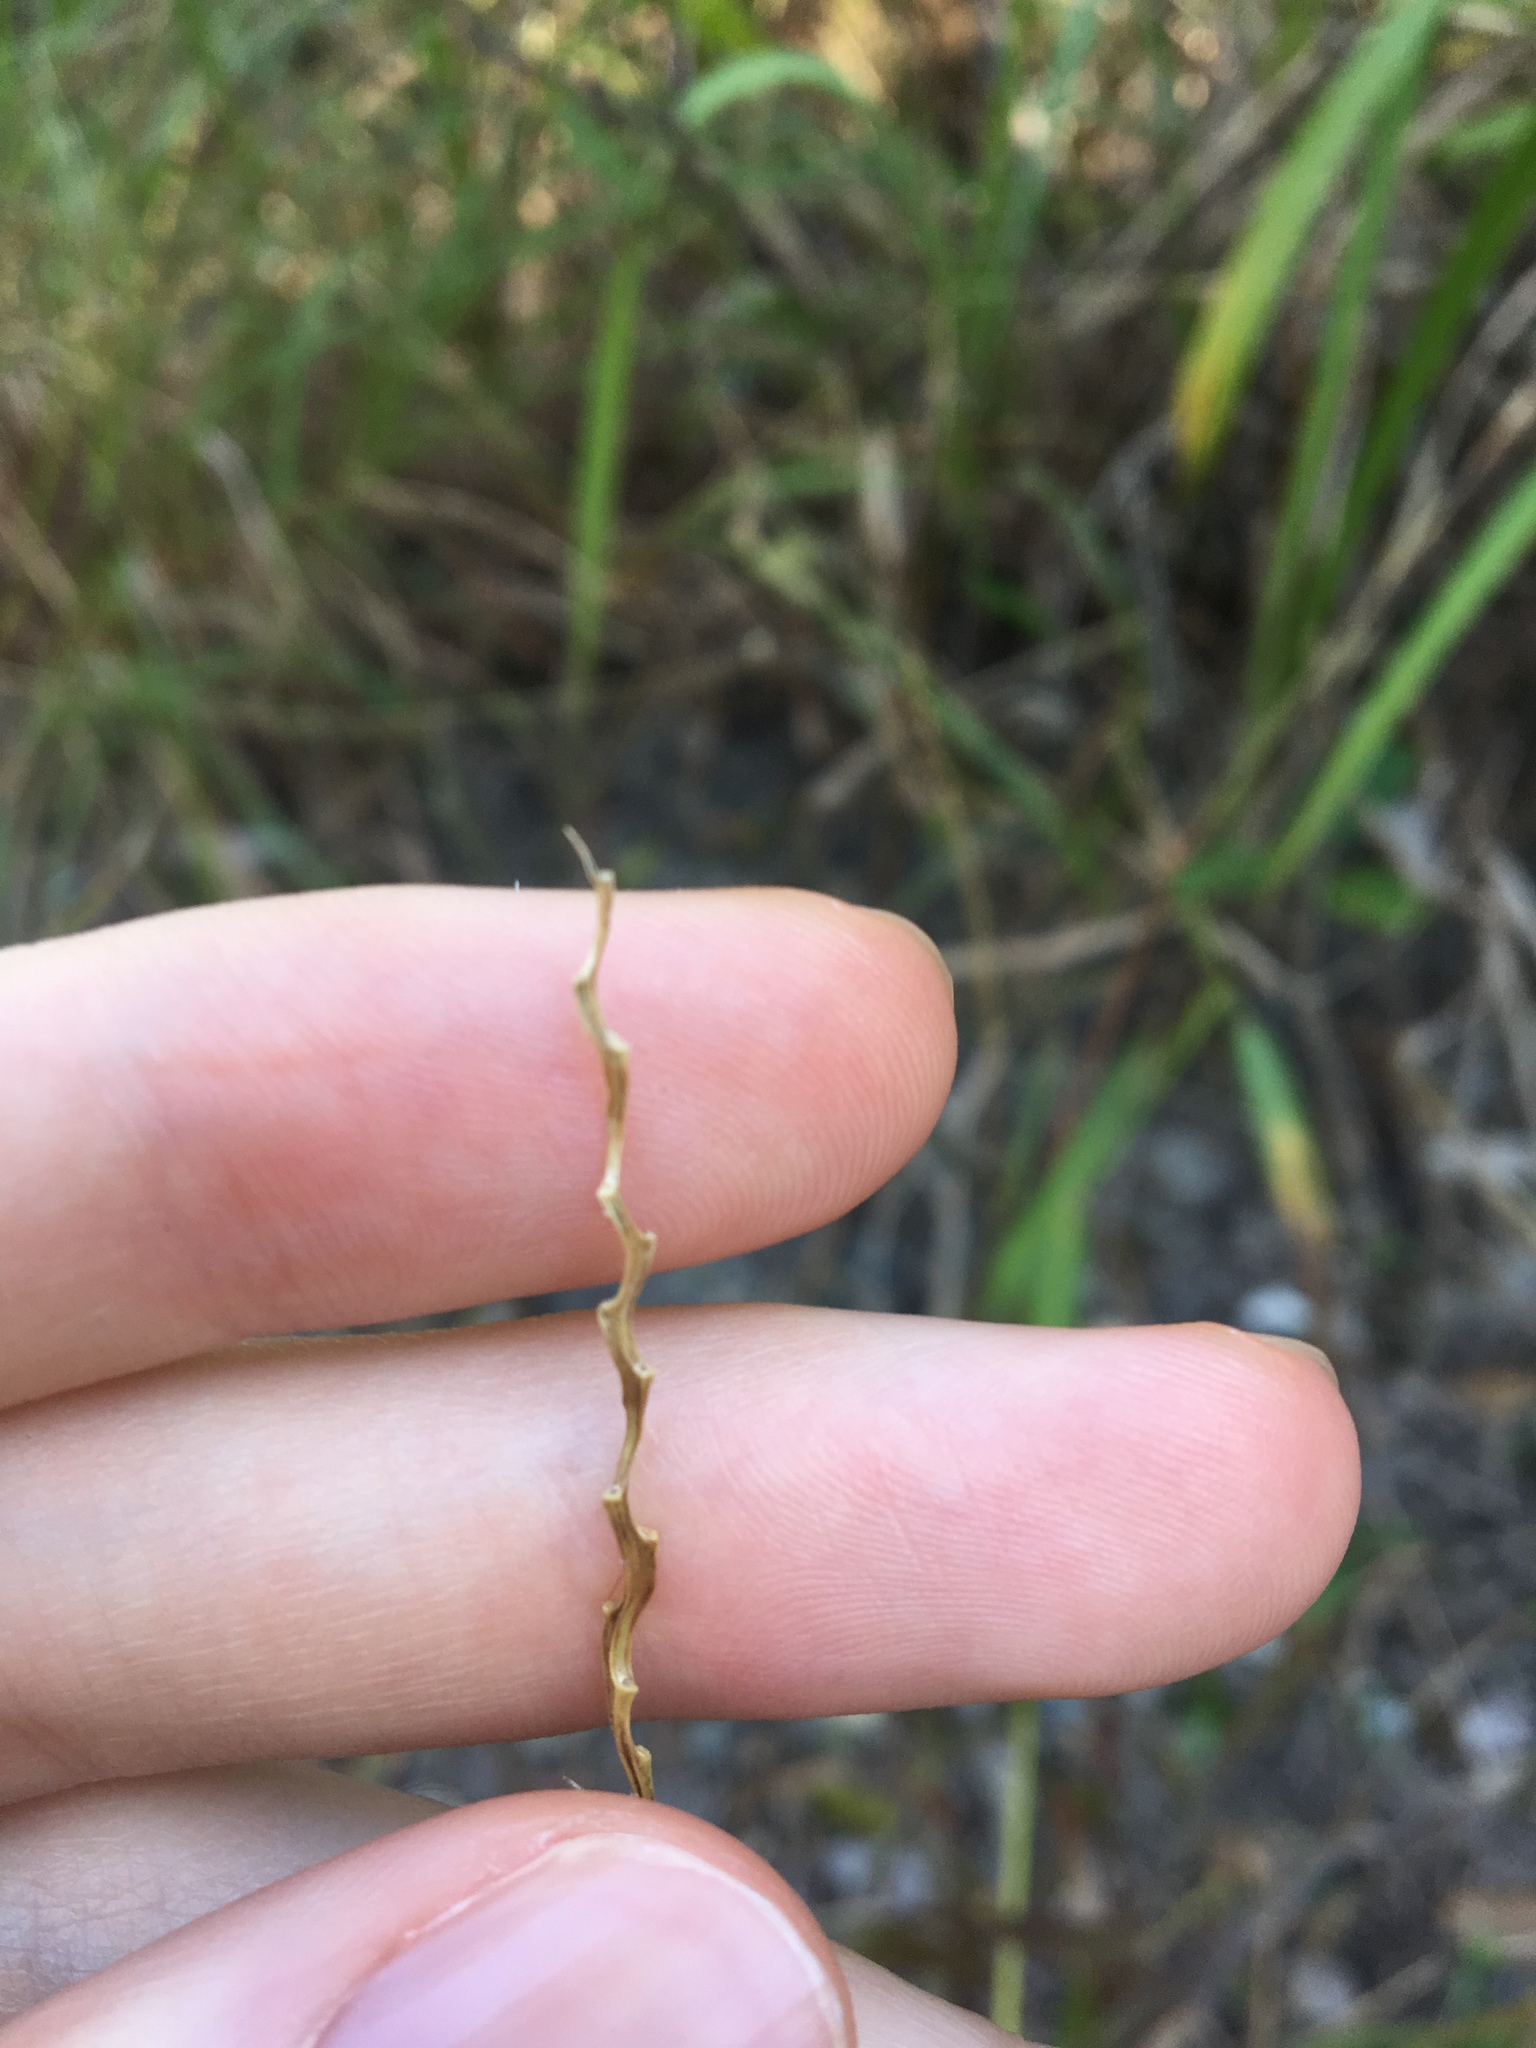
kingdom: Plantae
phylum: Tracheophyta
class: Liliopsida
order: Poales
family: Poaceae
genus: Cenchrus
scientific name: Cenchrus echinatus
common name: Southern sandbur
